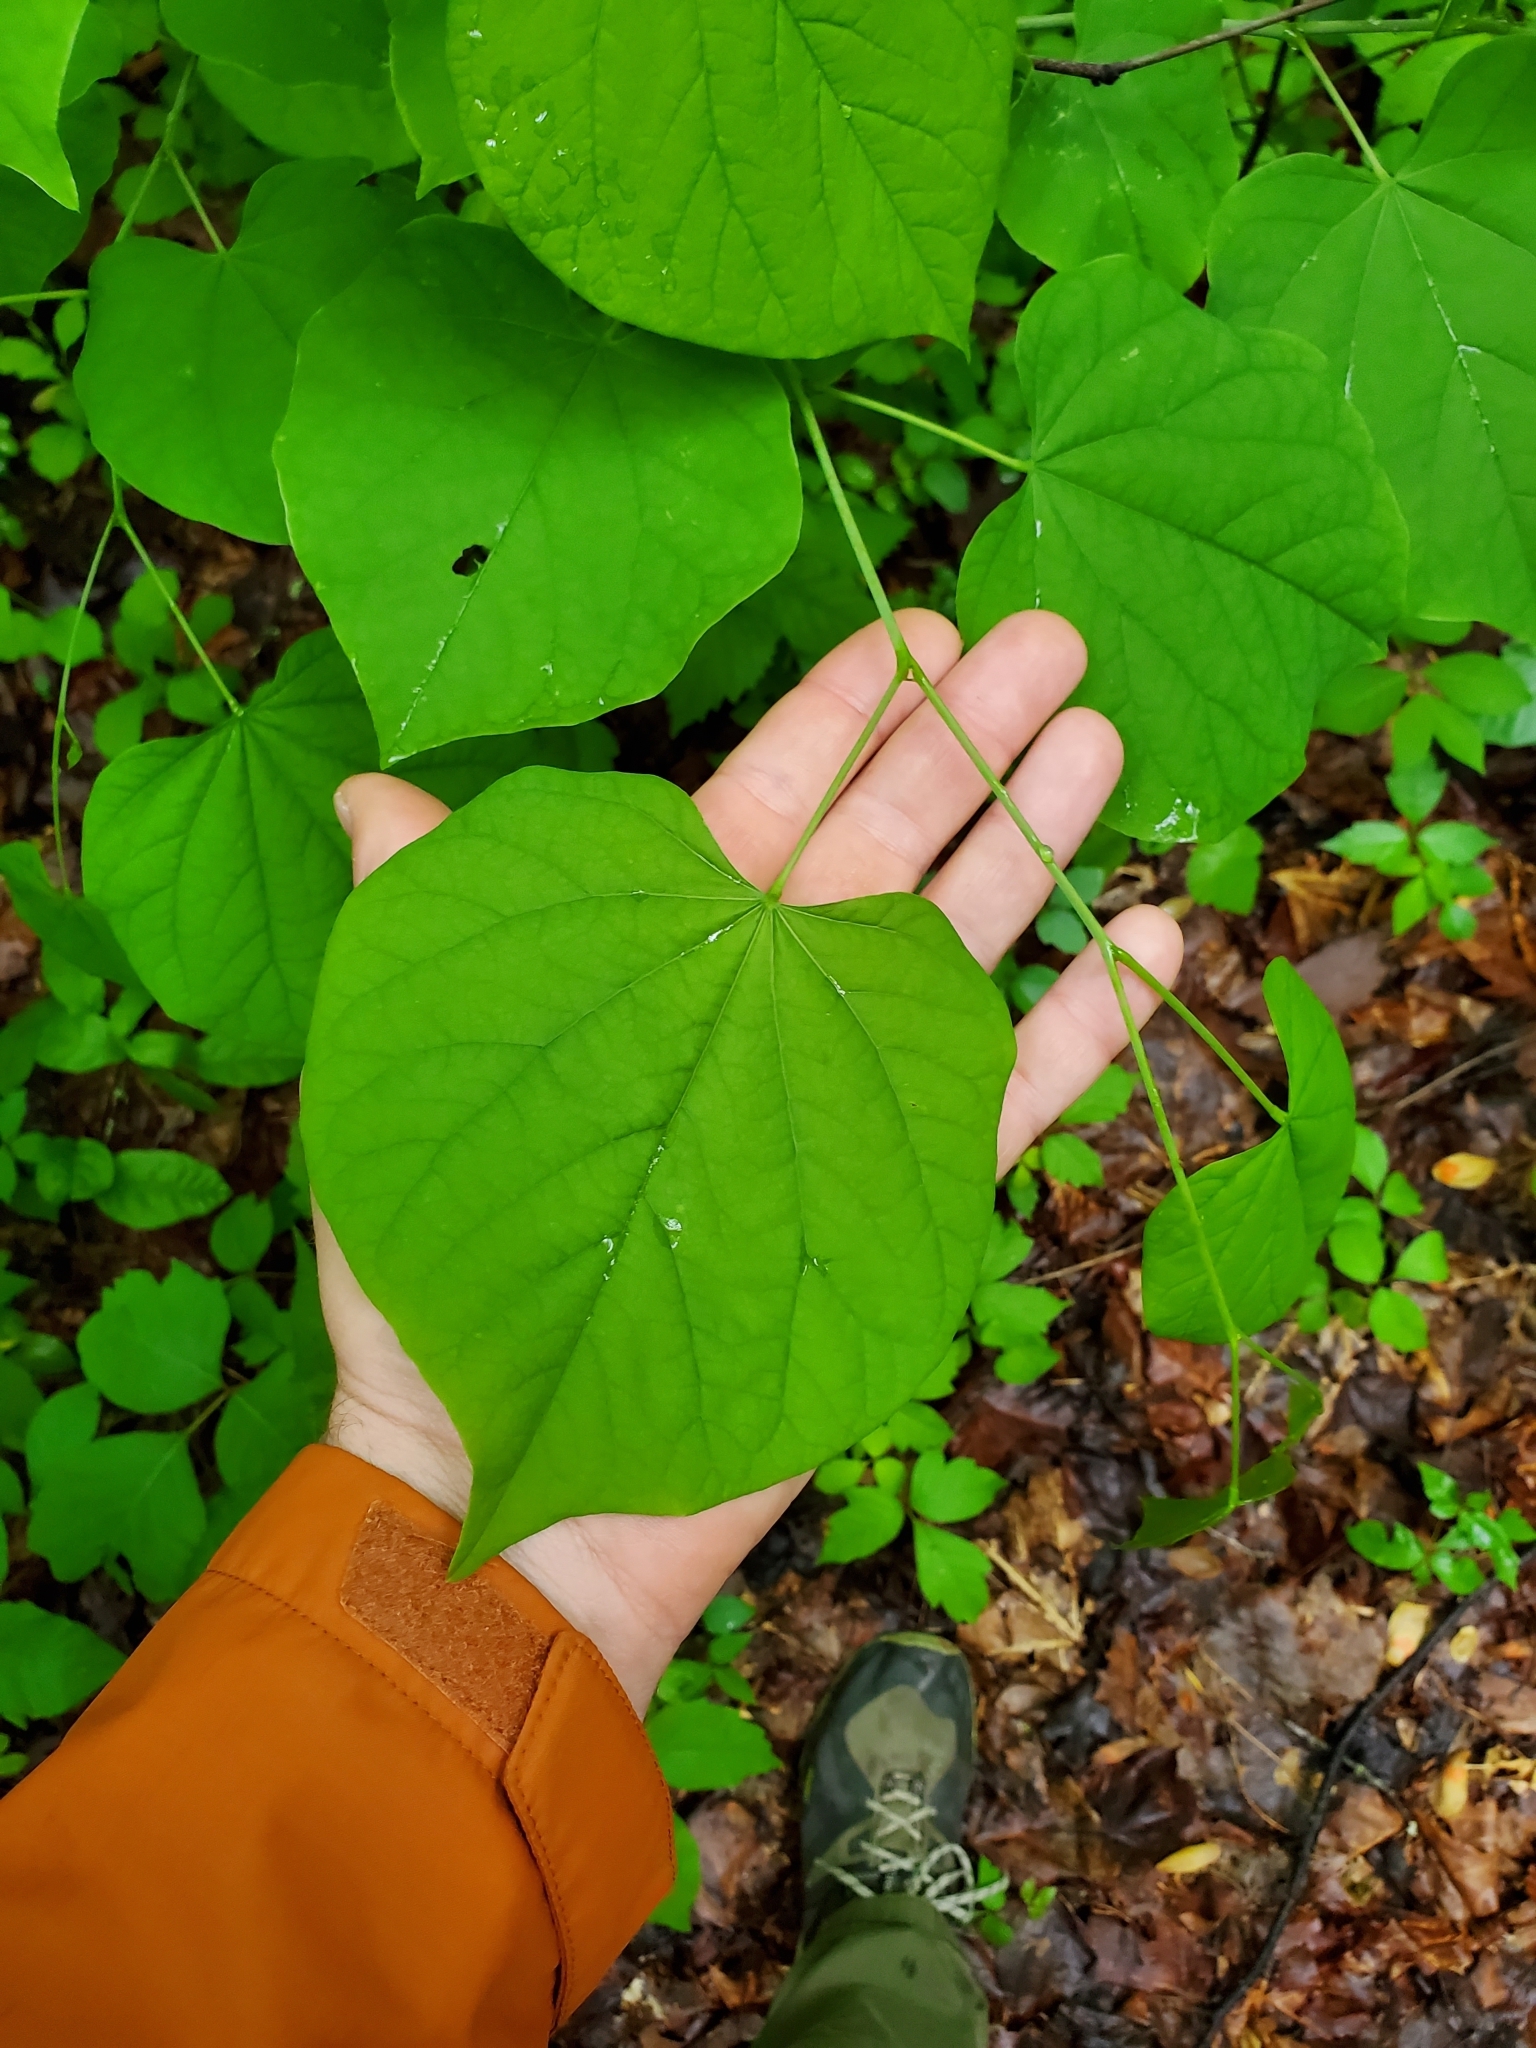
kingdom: Plantae
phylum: Tracheophyta
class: Magnoliopsida
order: Fabales
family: Fabaceae
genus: Cercis
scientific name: Cercis canadensis
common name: Eastern redbud
